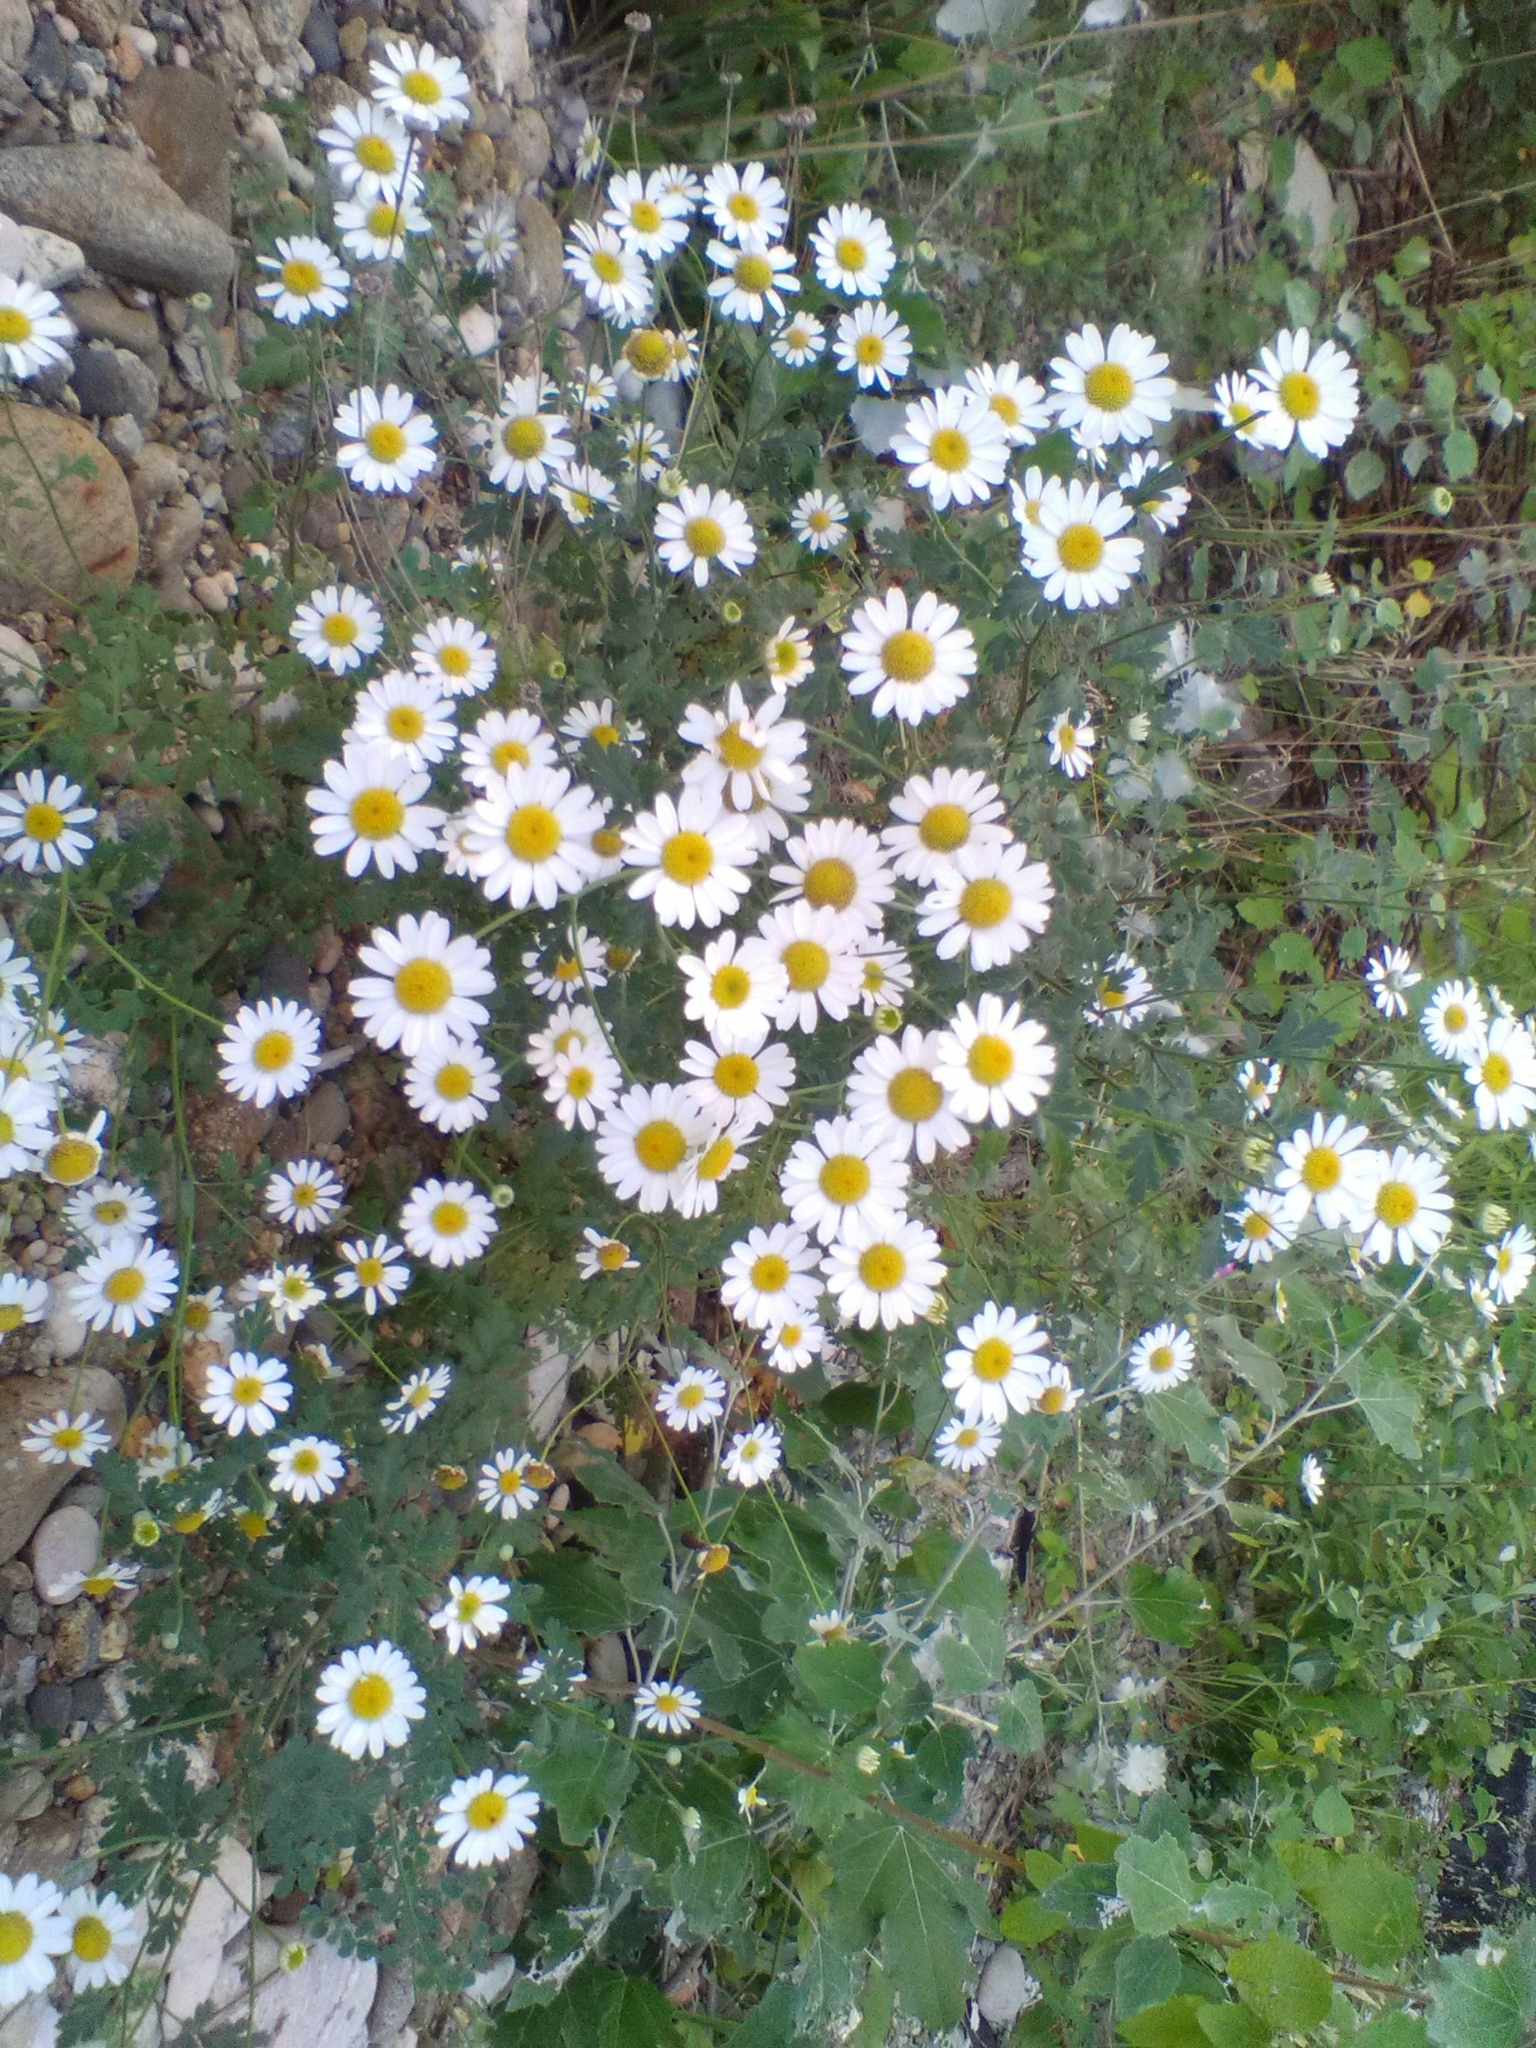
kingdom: Plantae
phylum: Tracheophyta
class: Magnoliopsida
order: Asterales
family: Asteraceae
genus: Tanacetum
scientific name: Tanacetum partheniifolium
